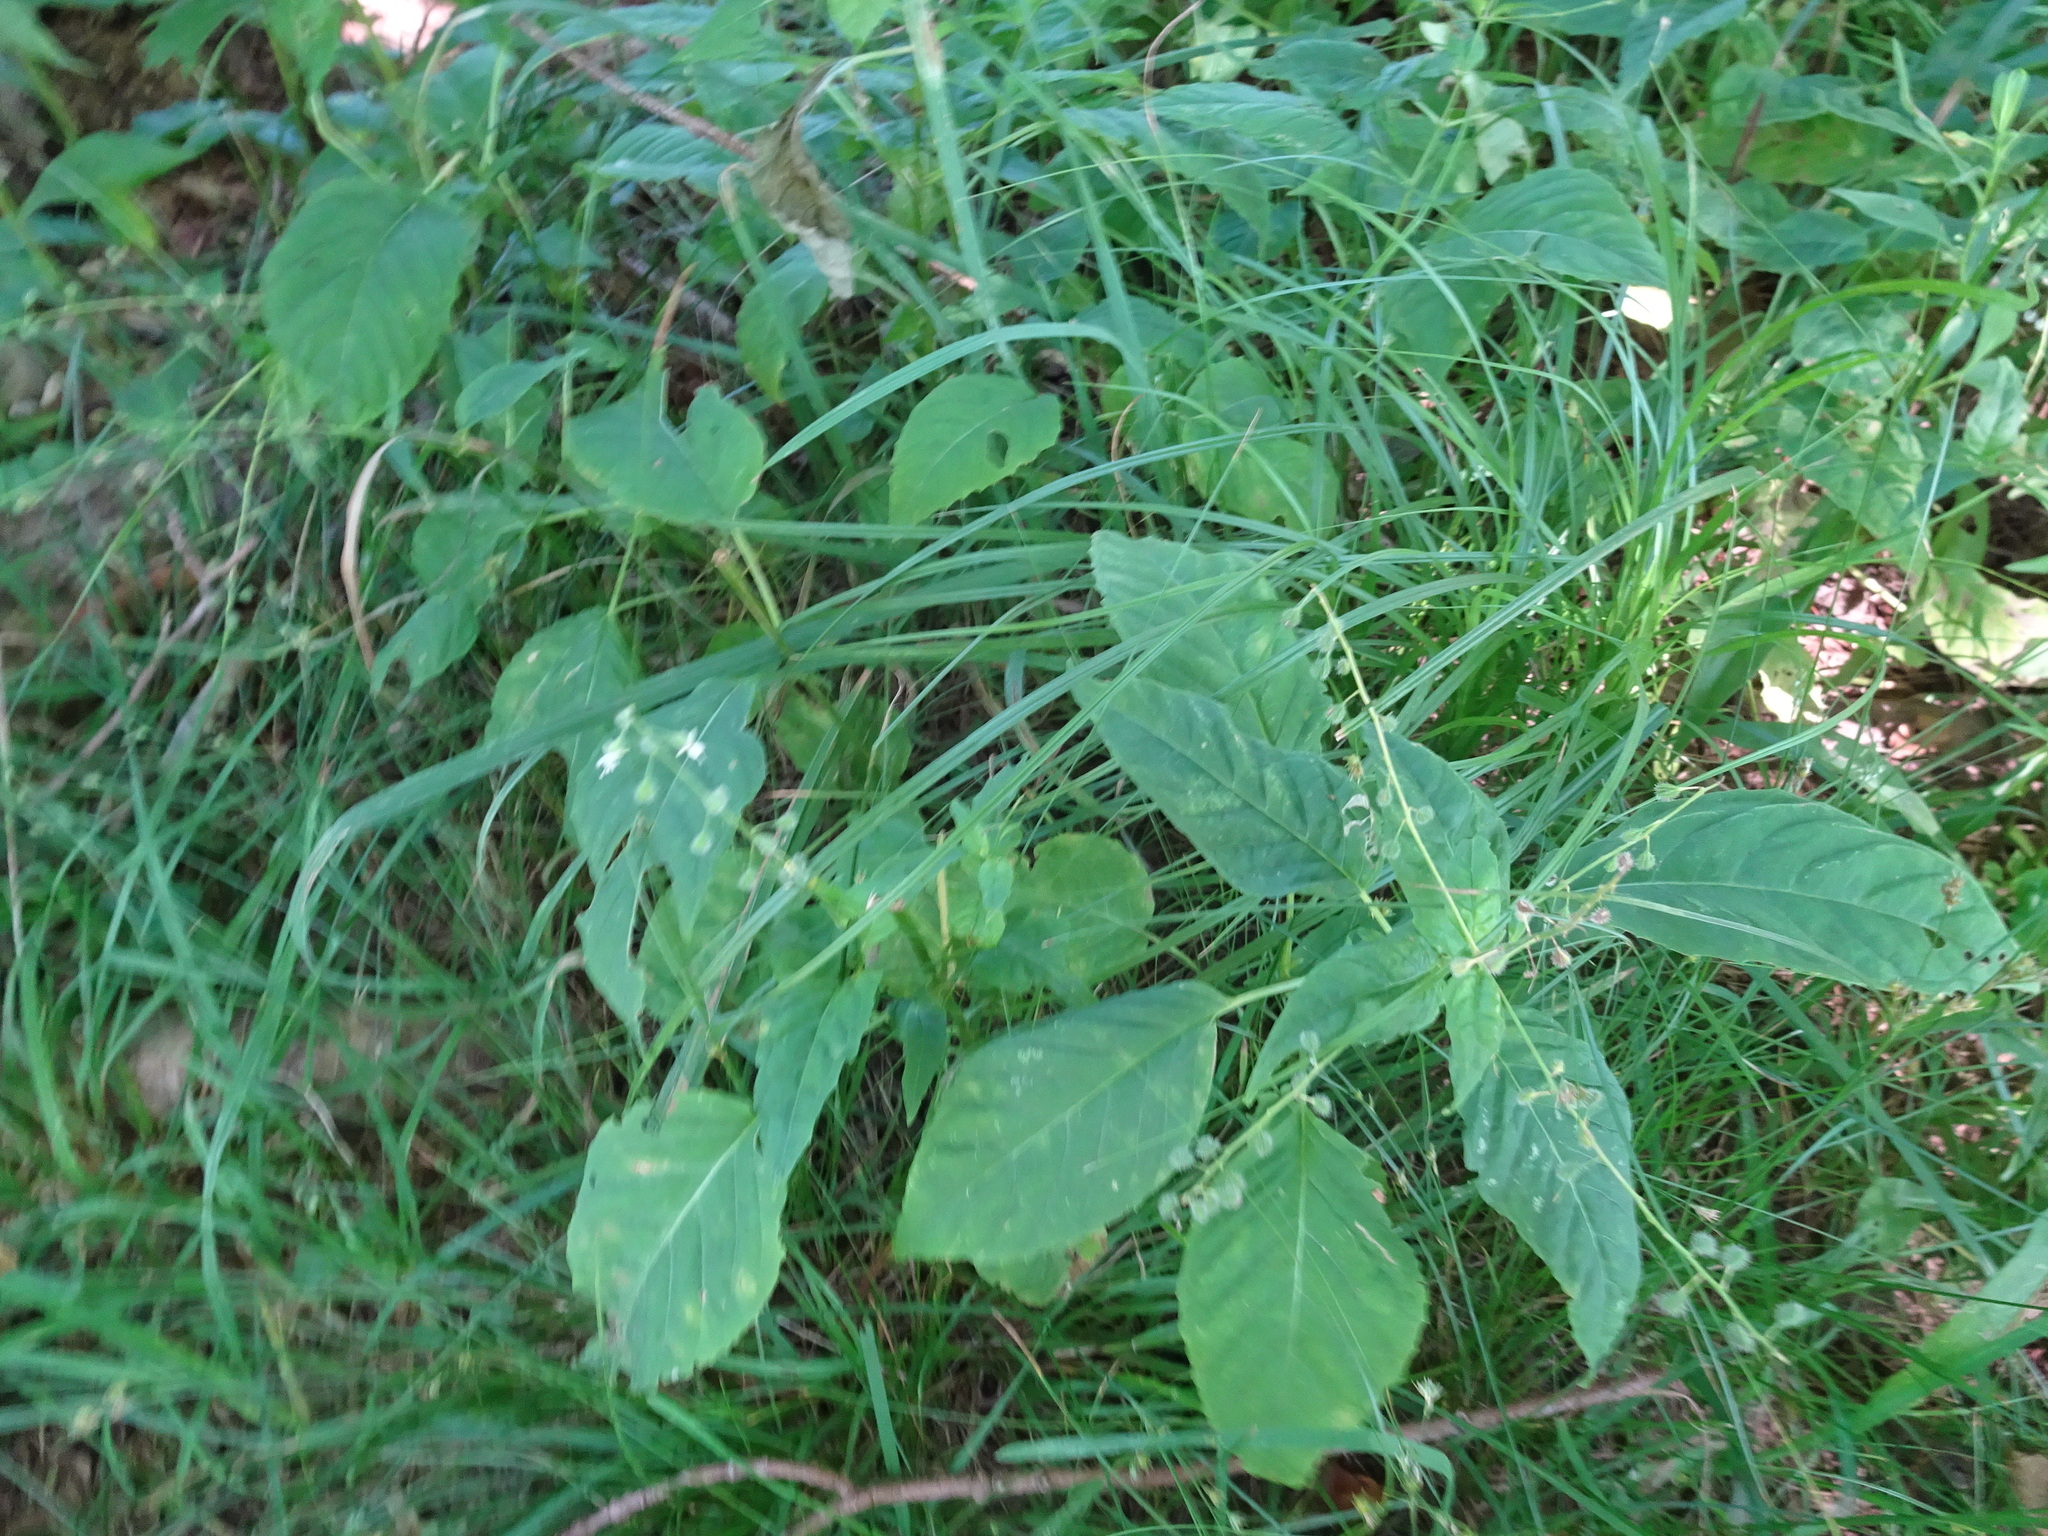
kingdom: Plantae
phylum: Tracheophyta
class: Magnoliopsida
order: Myrtales
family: Onagraceae
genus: Circaea
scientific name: Circaea canadensis
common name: Broad-leaved enchanter's nightshade
